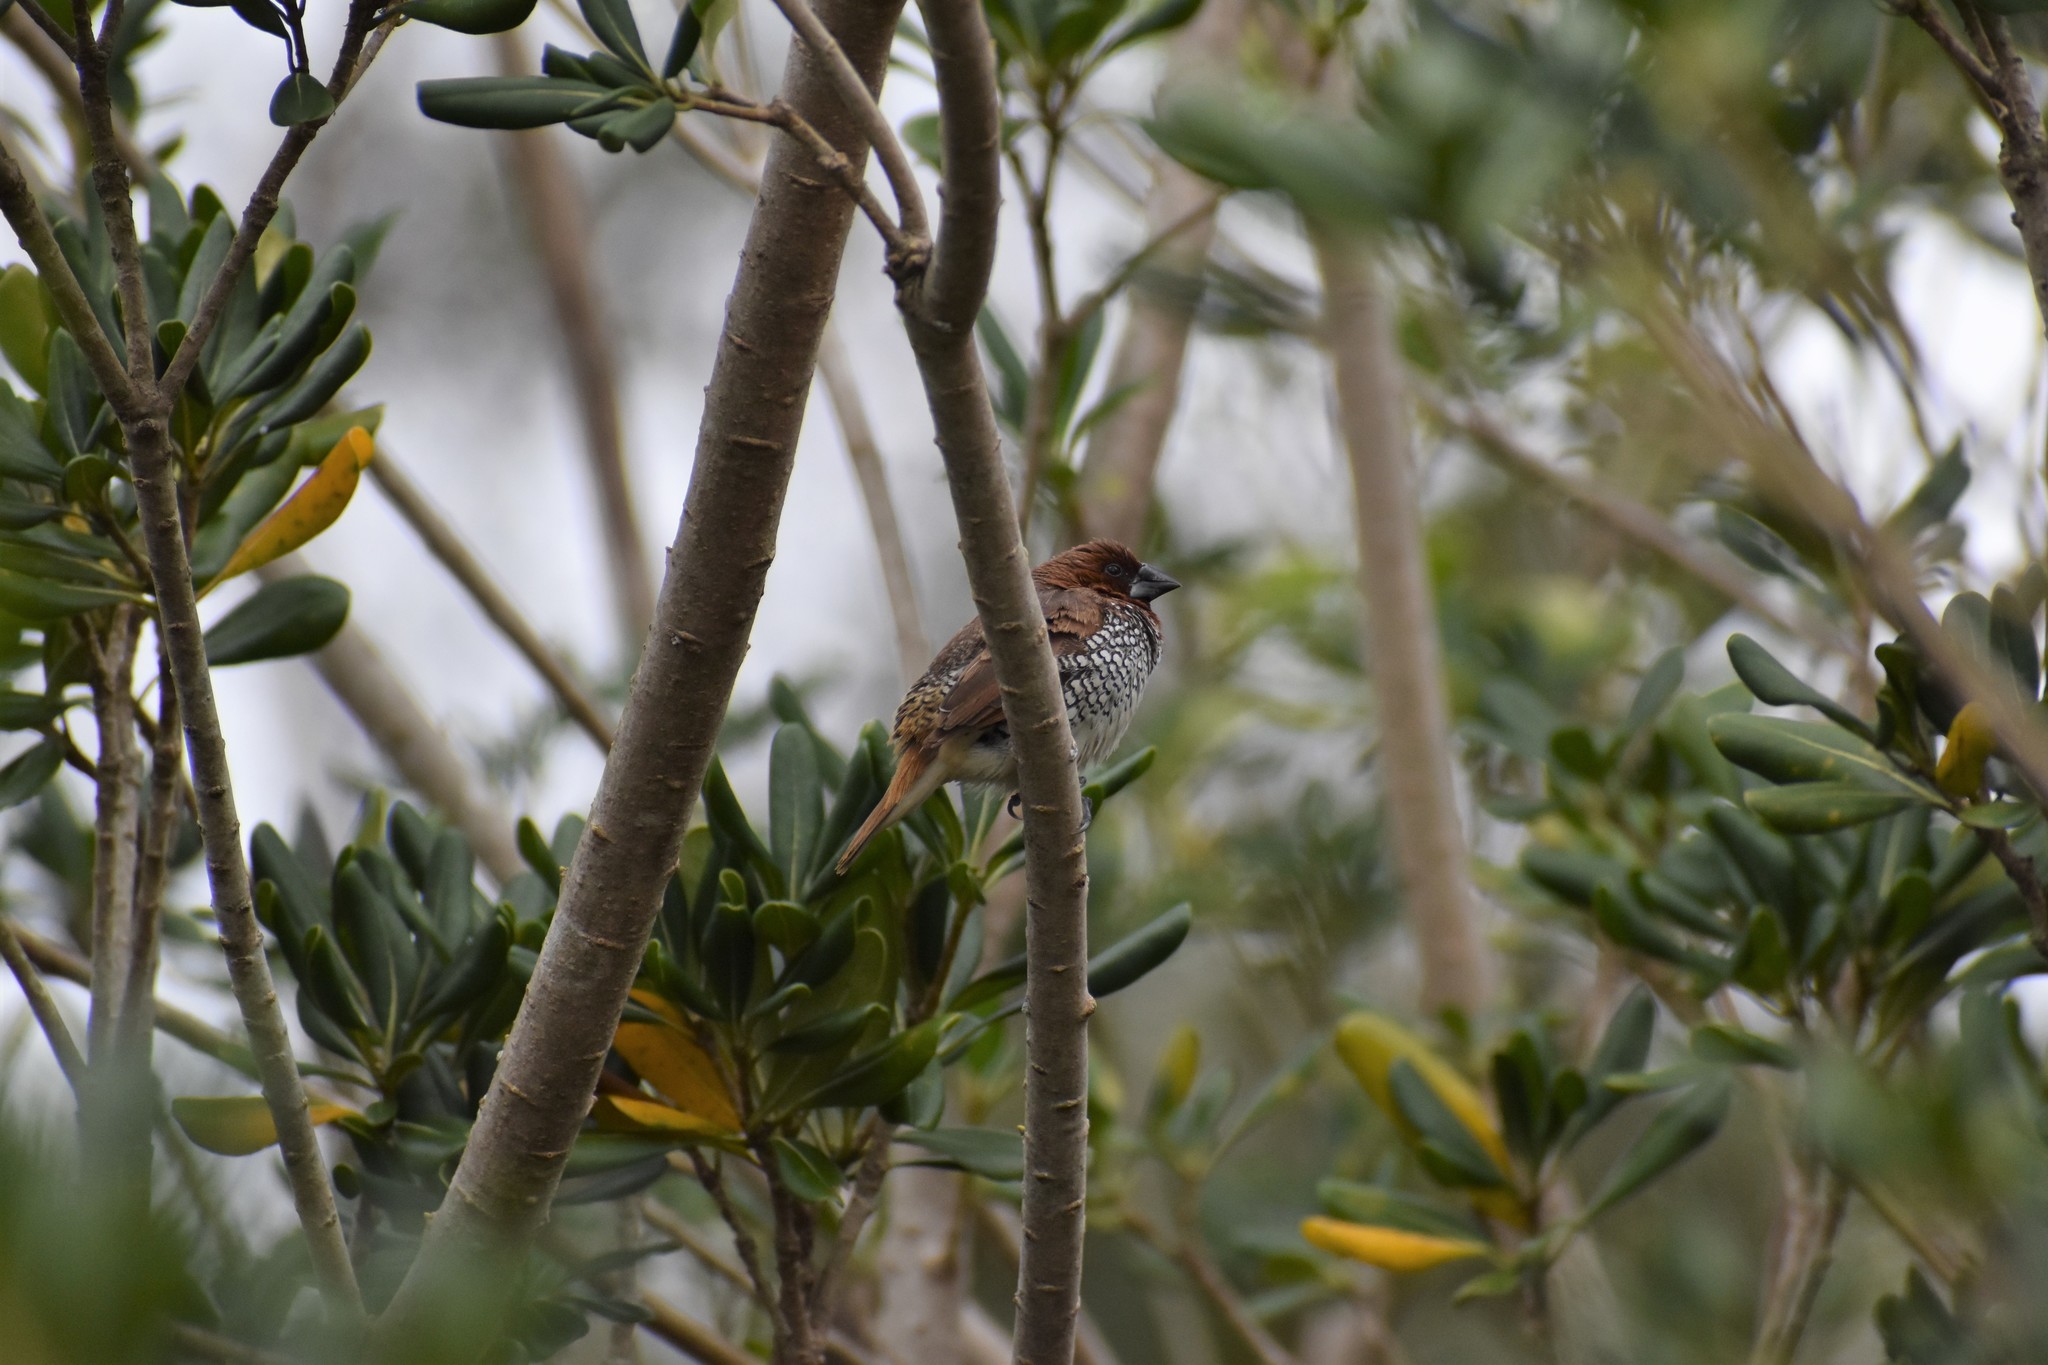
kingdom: Animalia
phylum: Chordata
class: Aves
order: Passeriformes
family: Estrildidae
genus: Lonchura
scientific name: Lonchura punctulata
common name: Scaly-breasted munia
